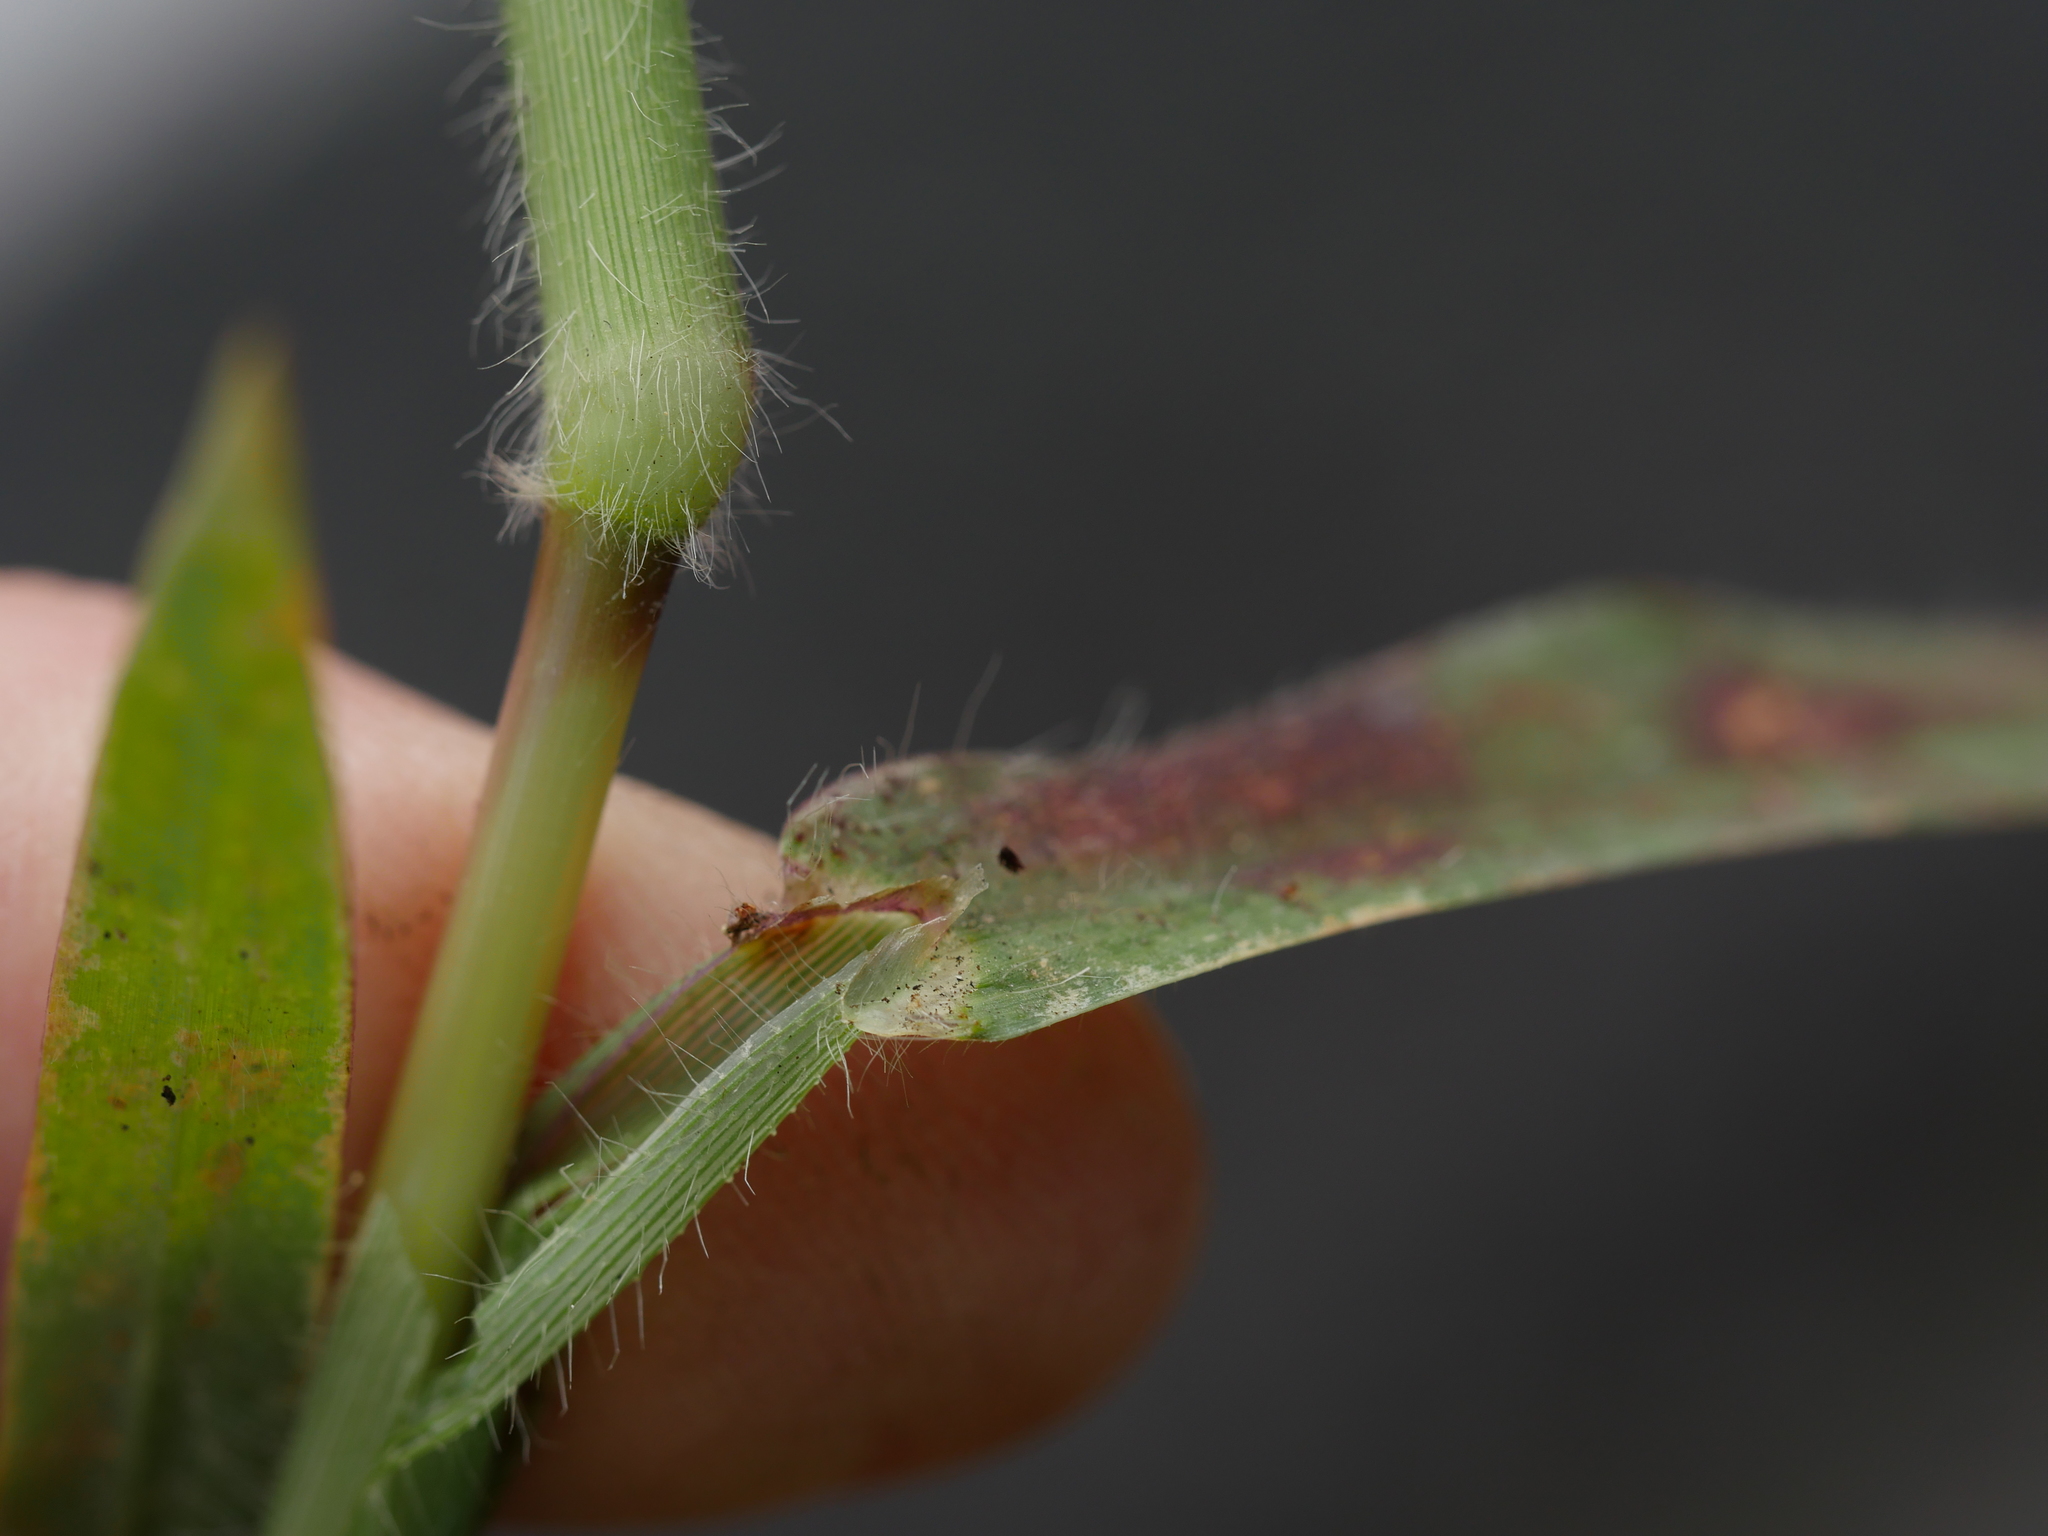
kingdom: Plantae
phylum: Tracheophyta
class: Liliopsida
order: Poales
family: Poaceae
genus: Digitaria
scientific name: Digitaria sanguinalis
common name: Hairy crabgrass
